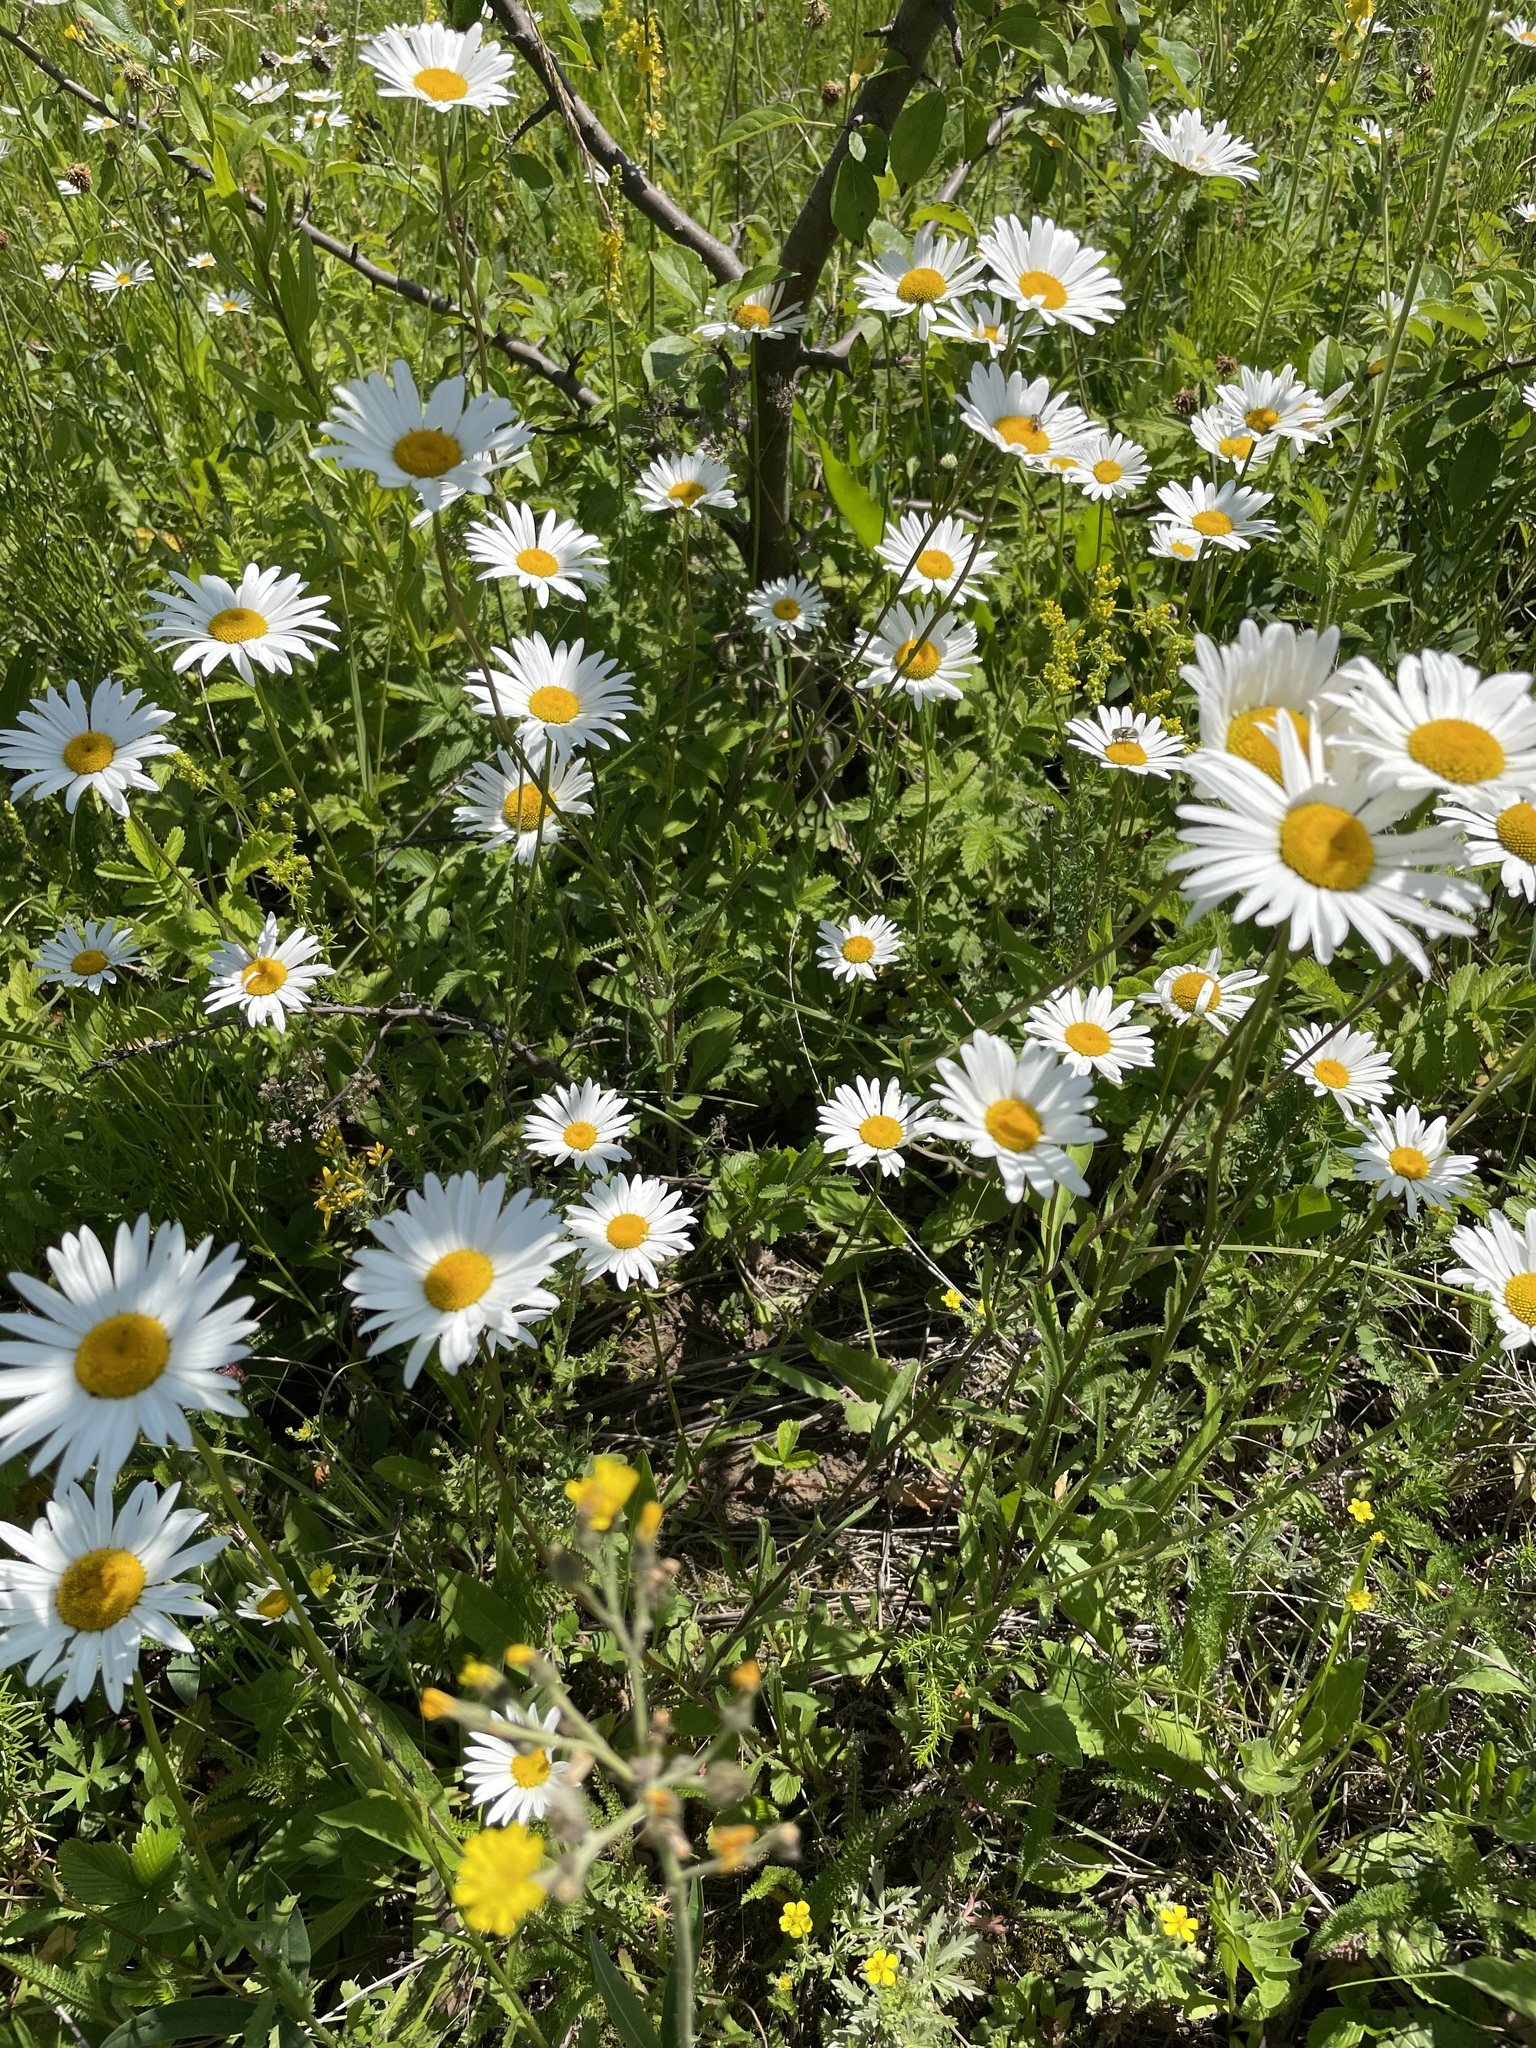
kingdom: Plantae
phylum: Tracheophyta
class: Magnoliopsida
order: Asterales
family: Asteraceae
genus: Leucanthemum
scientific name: Leucanthemum vulgare
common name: Oxeye daisy
